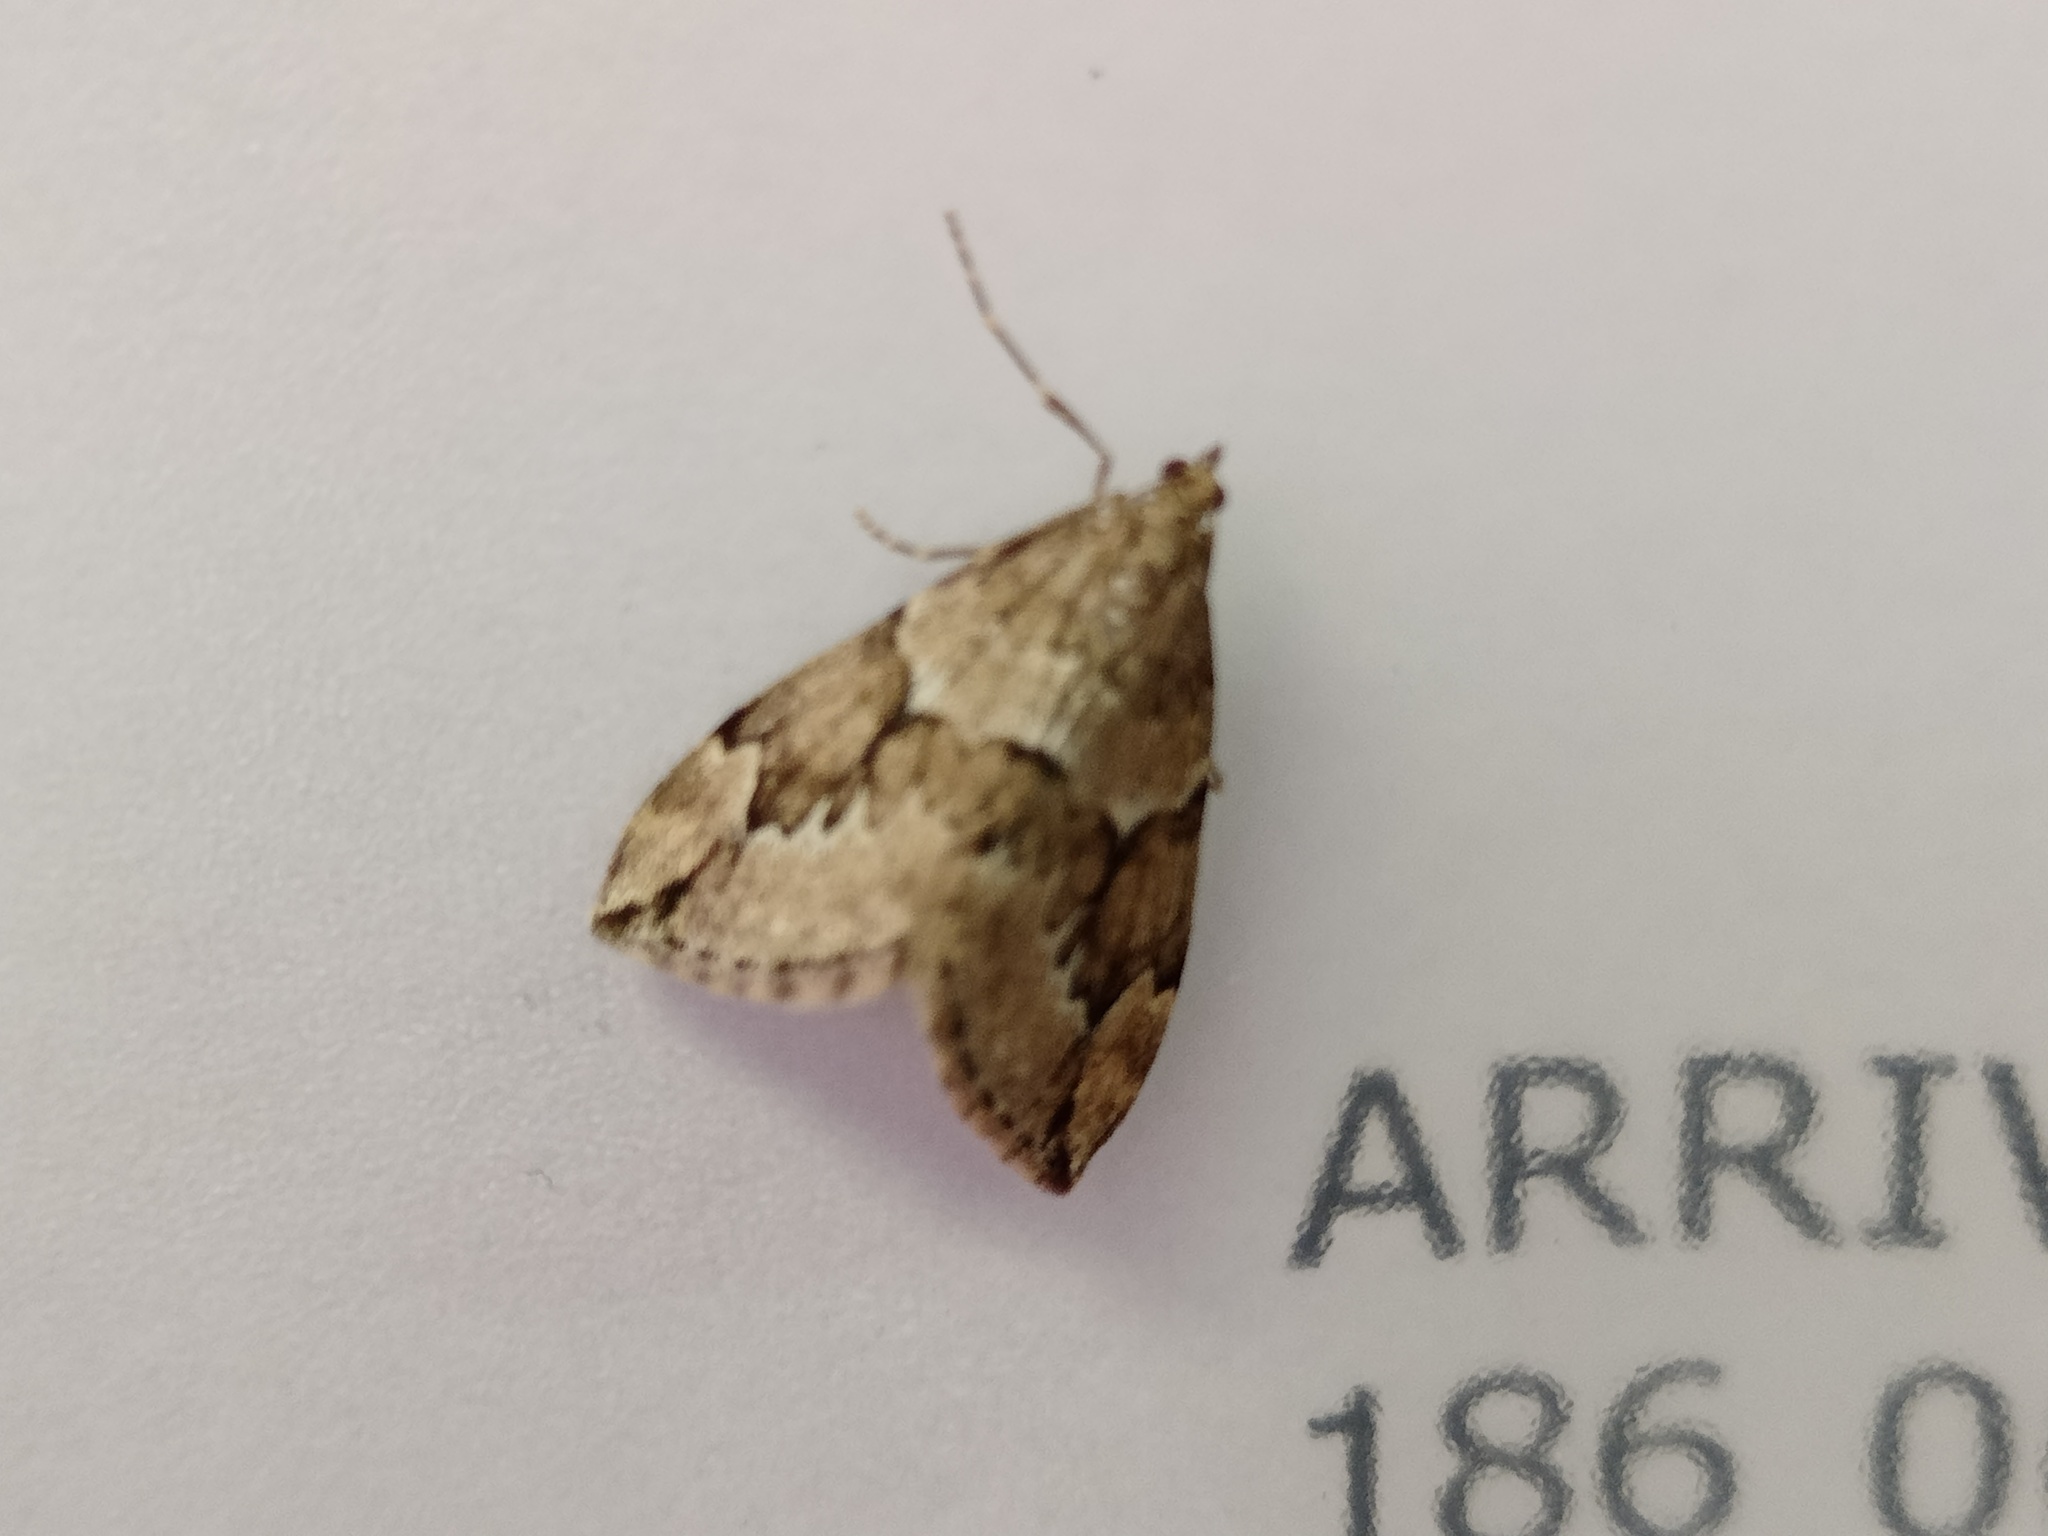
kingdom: Animalia
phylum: Arthropoda
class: Insecta
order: Lepidoptera
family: Geometridae
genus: Thera
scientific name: Thera juniperata
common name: Juniper carpet
